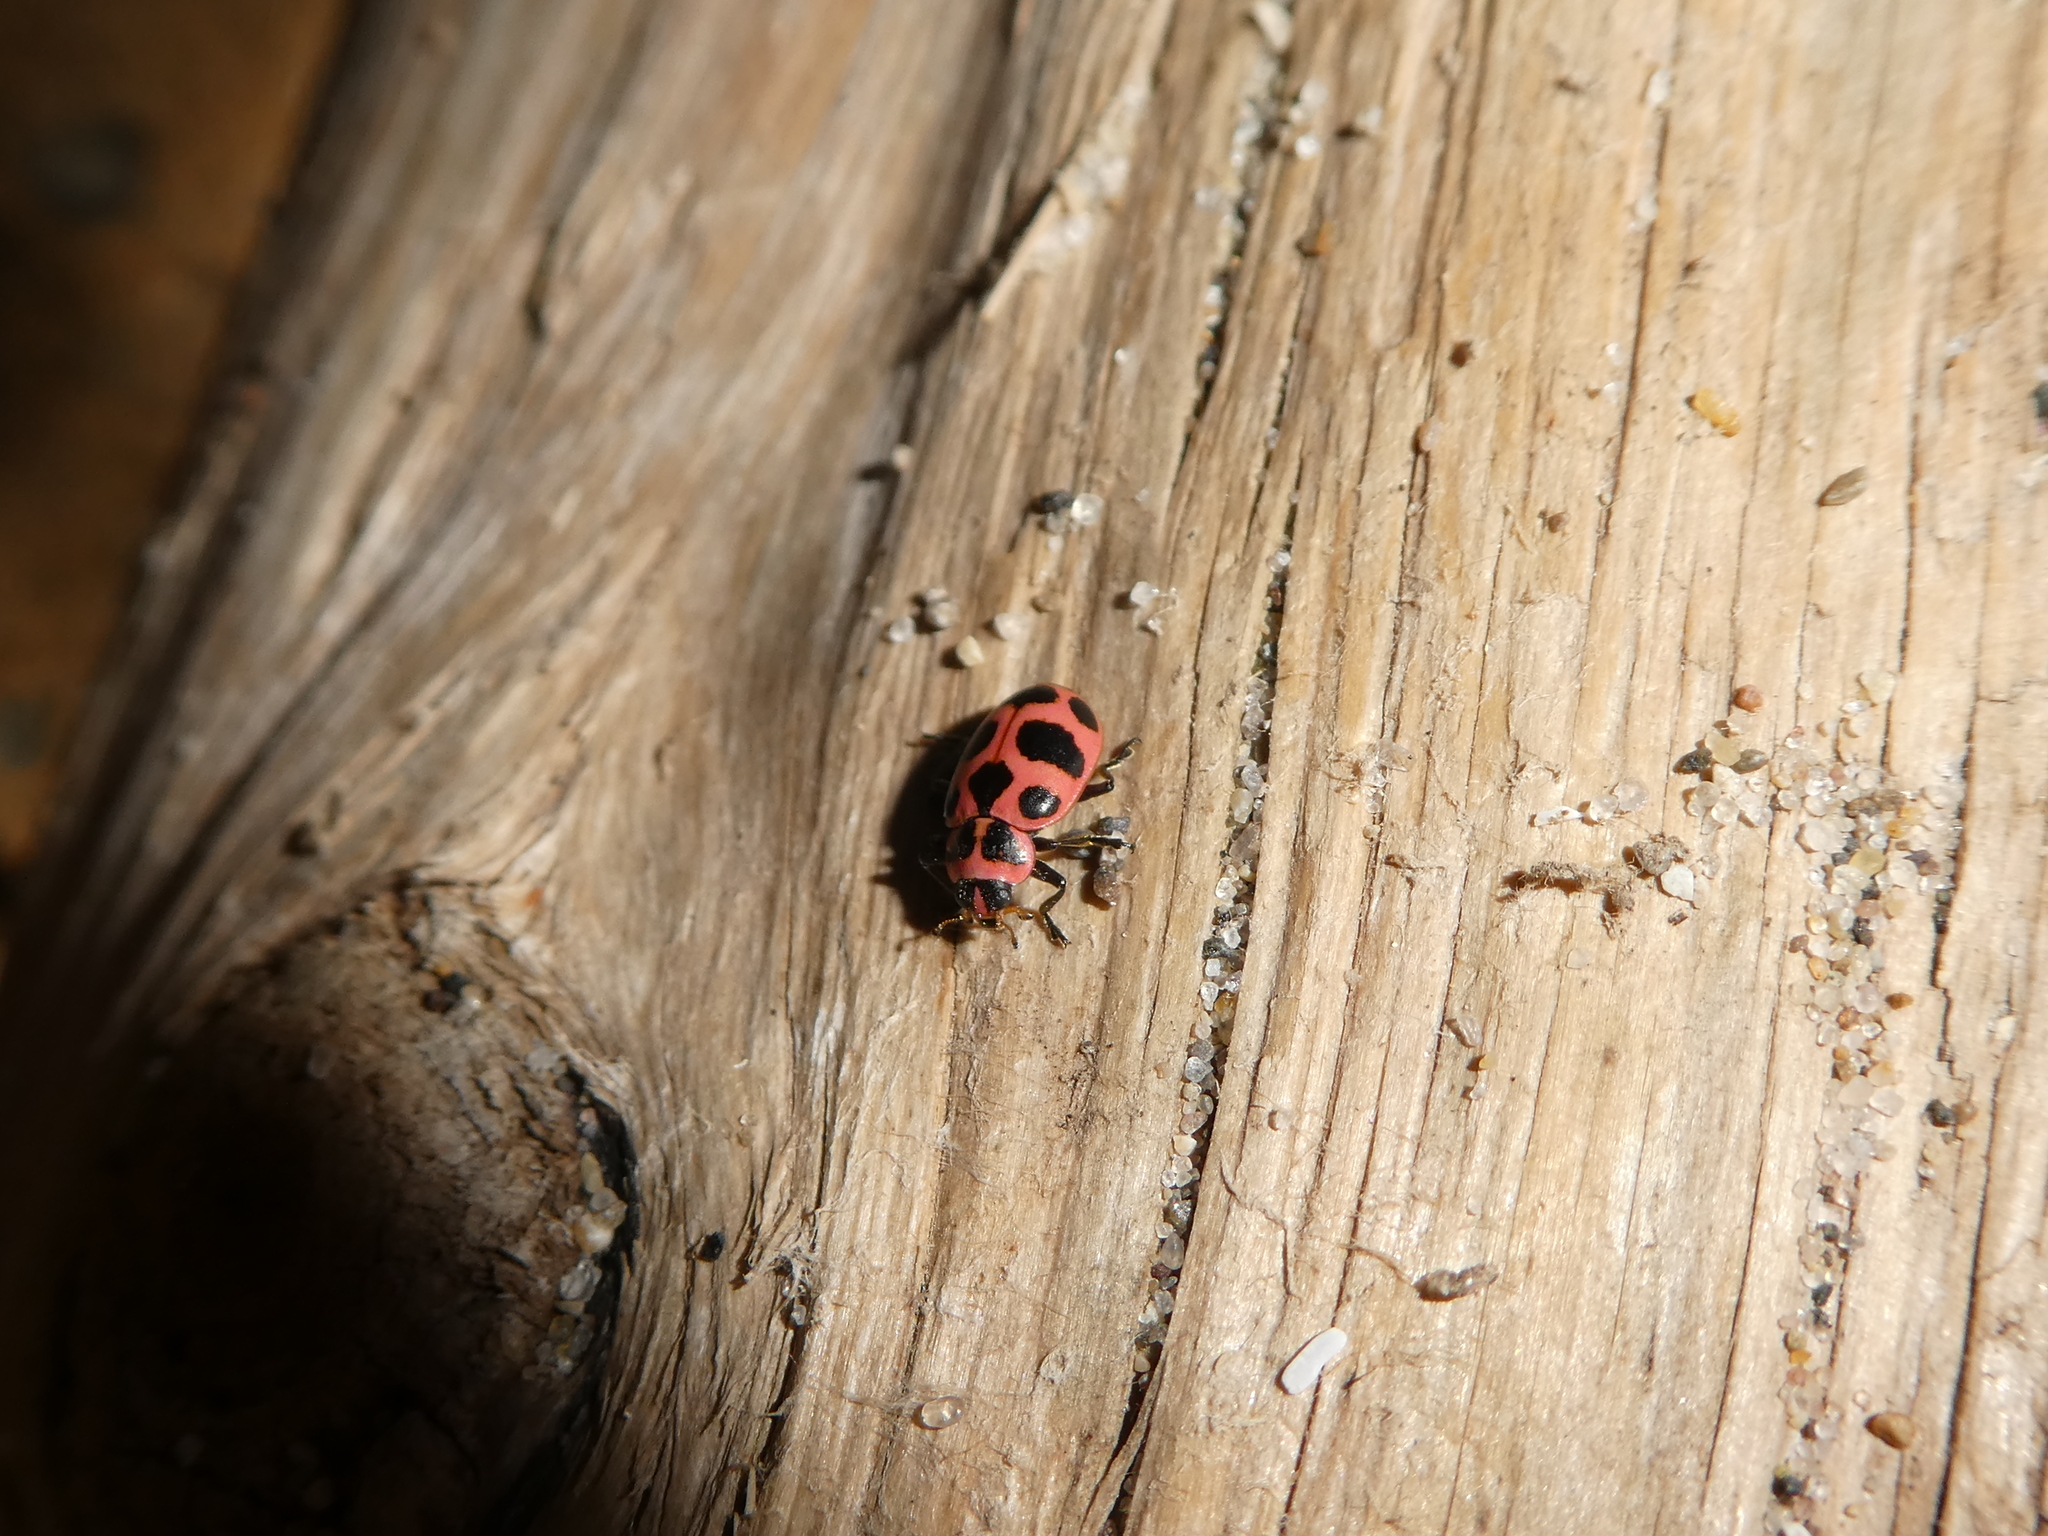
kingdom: Animalia
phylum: Arthropoda
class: Insecta
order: Coleoptera
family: Coccinellidae
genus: Coleomegilla
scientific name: Coleomegilla maculata
